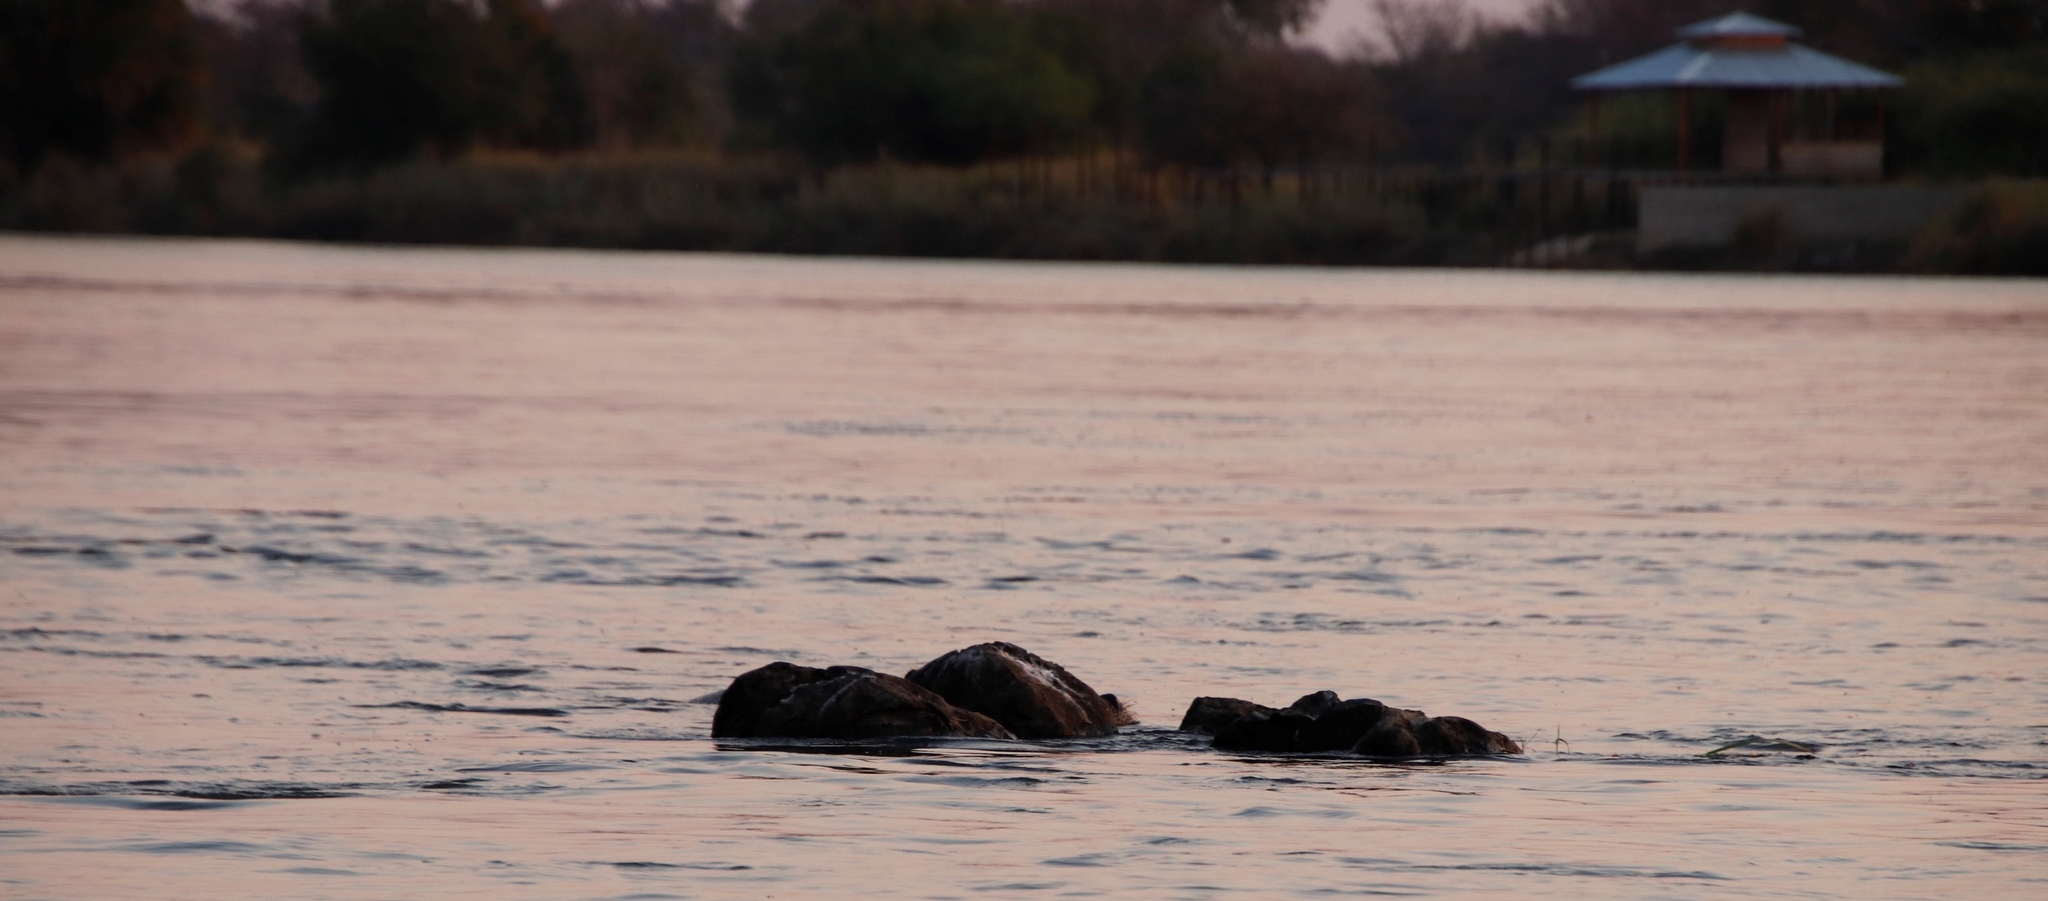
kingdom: Animalia
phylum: Chordata
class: Mammalia
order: Artiodactyla
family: Hippopotamidae
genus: Hippopotamus
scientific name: Hippopotamus amphibius
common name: Common hippopotamus
